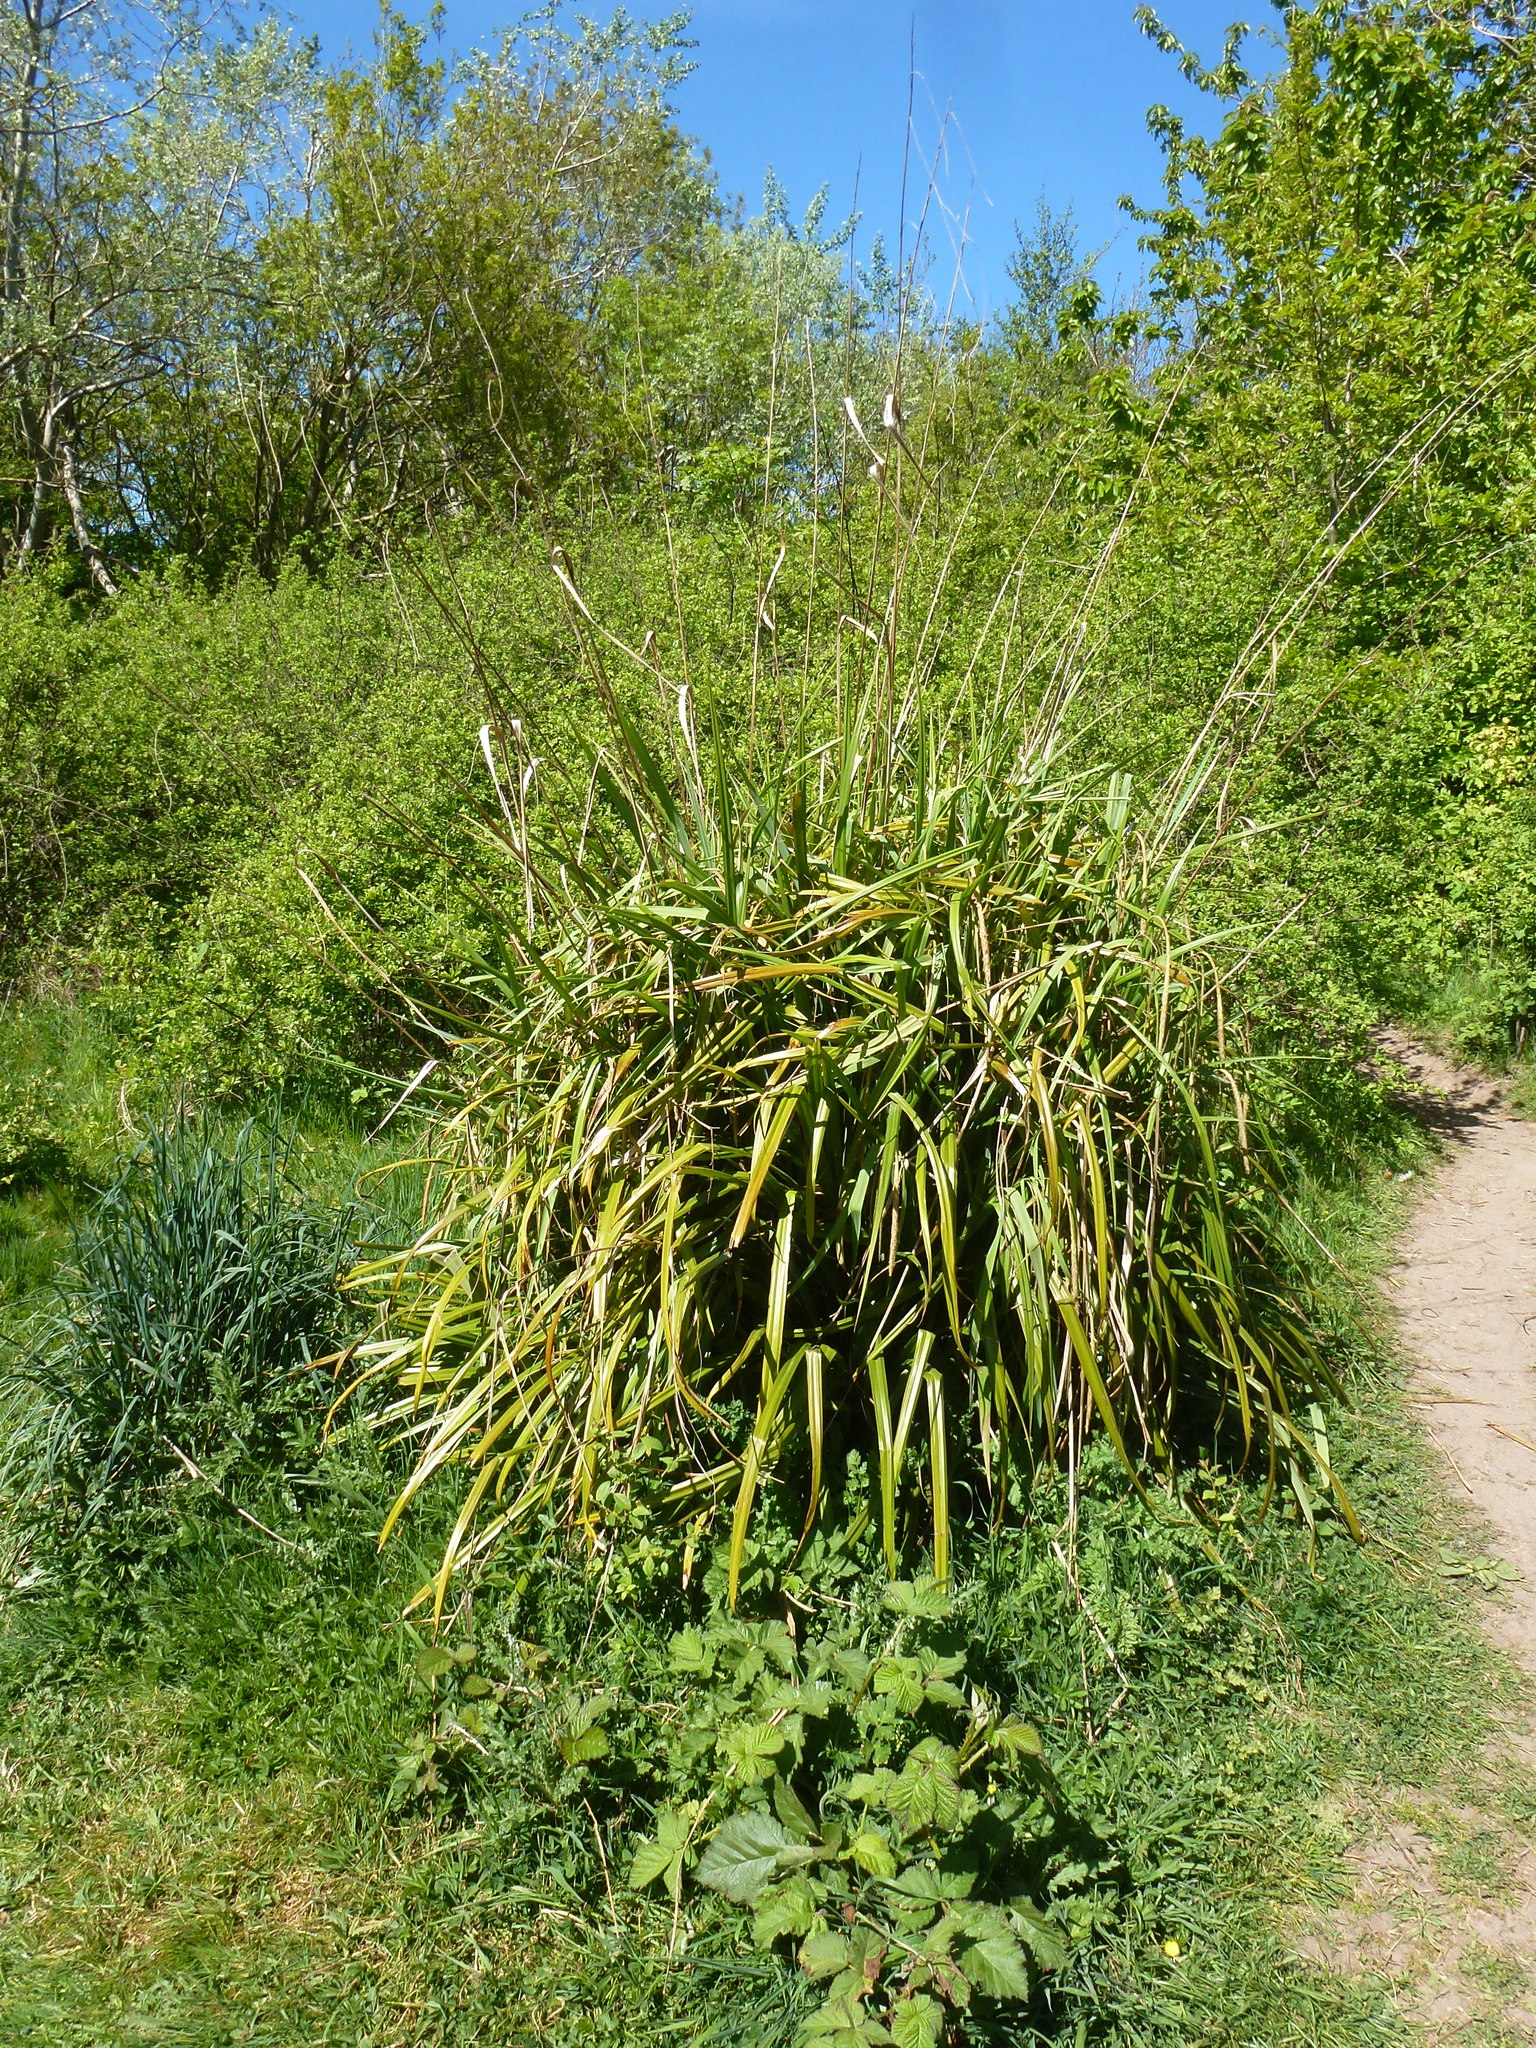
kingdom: Plantae
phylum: Tracheophyta
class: Liliopsida
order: Poales
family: Cyperaceae
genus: Carex
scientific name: Carex pendula
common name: Pendulous sedge
